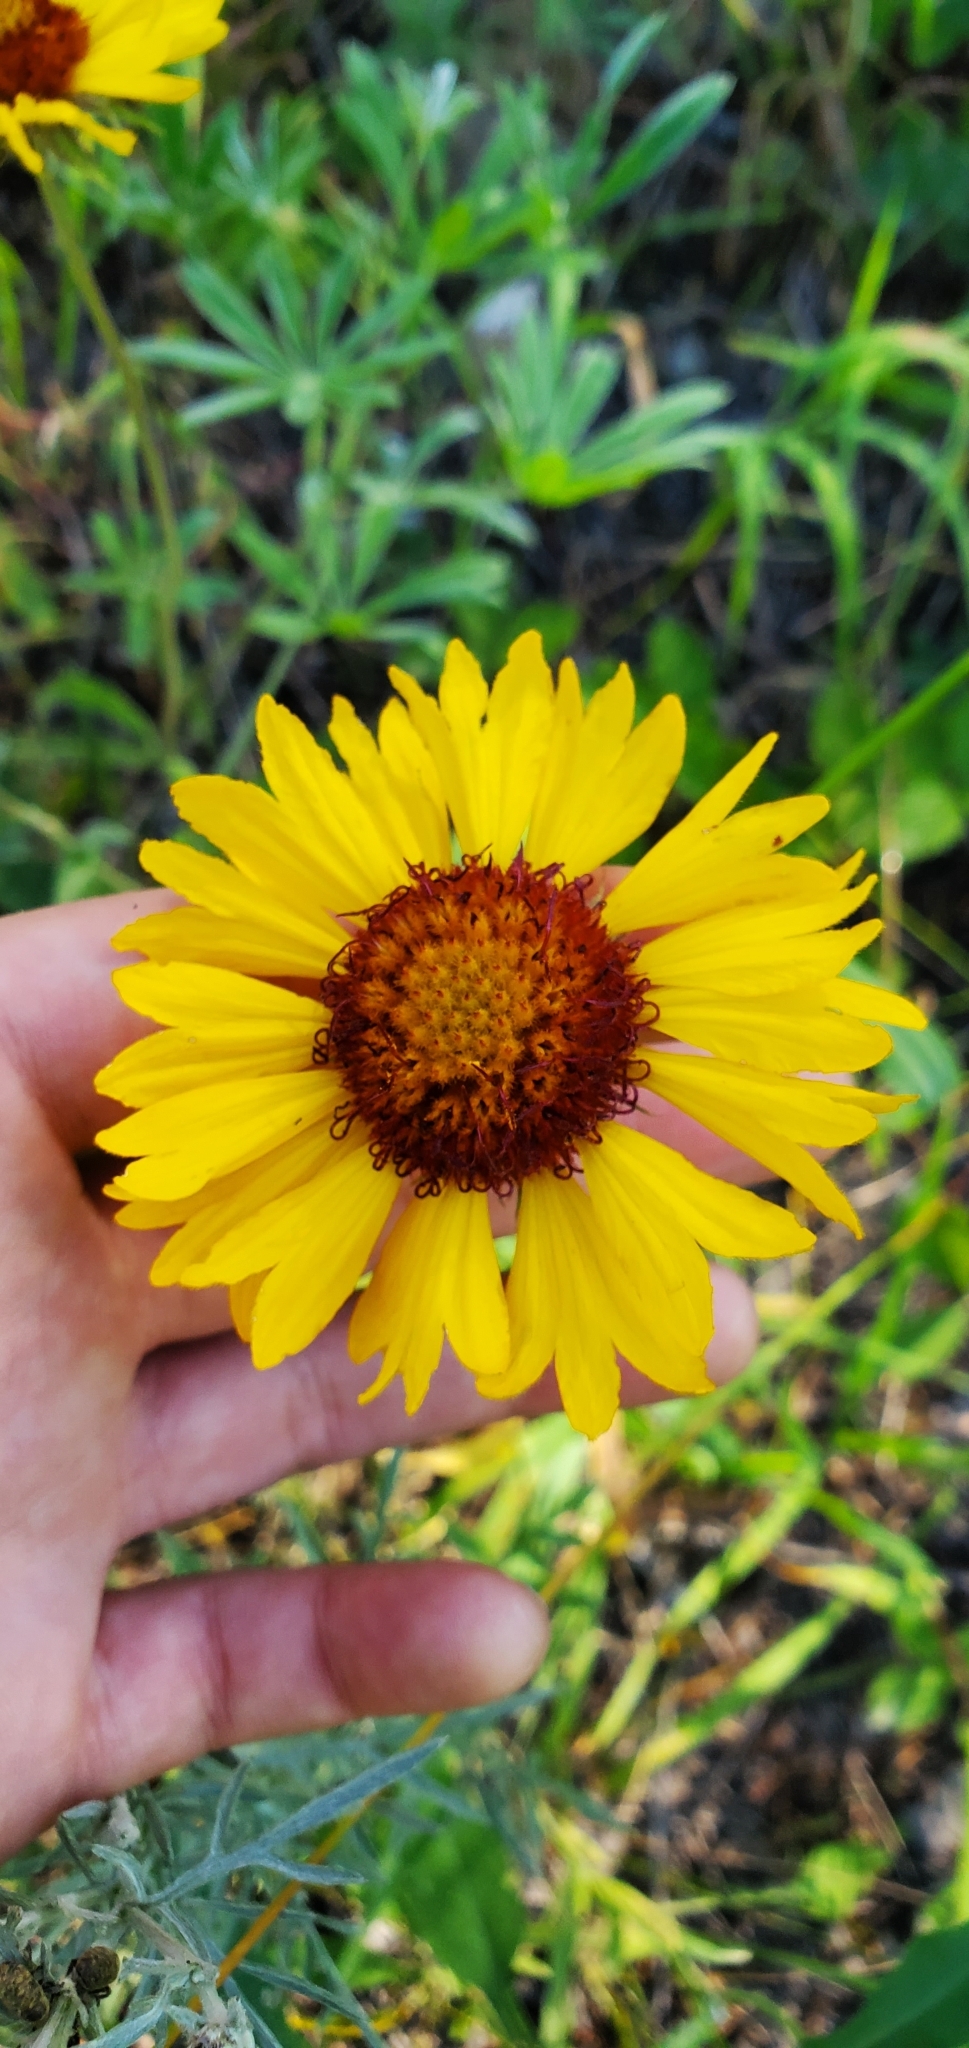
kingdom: Plantae
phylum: Tracheophyta
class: Magnoliopsida
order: Asterales
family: Asteraceae
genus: Gaillardia
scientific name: Gaillardia aristata
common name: Blanket-flower
